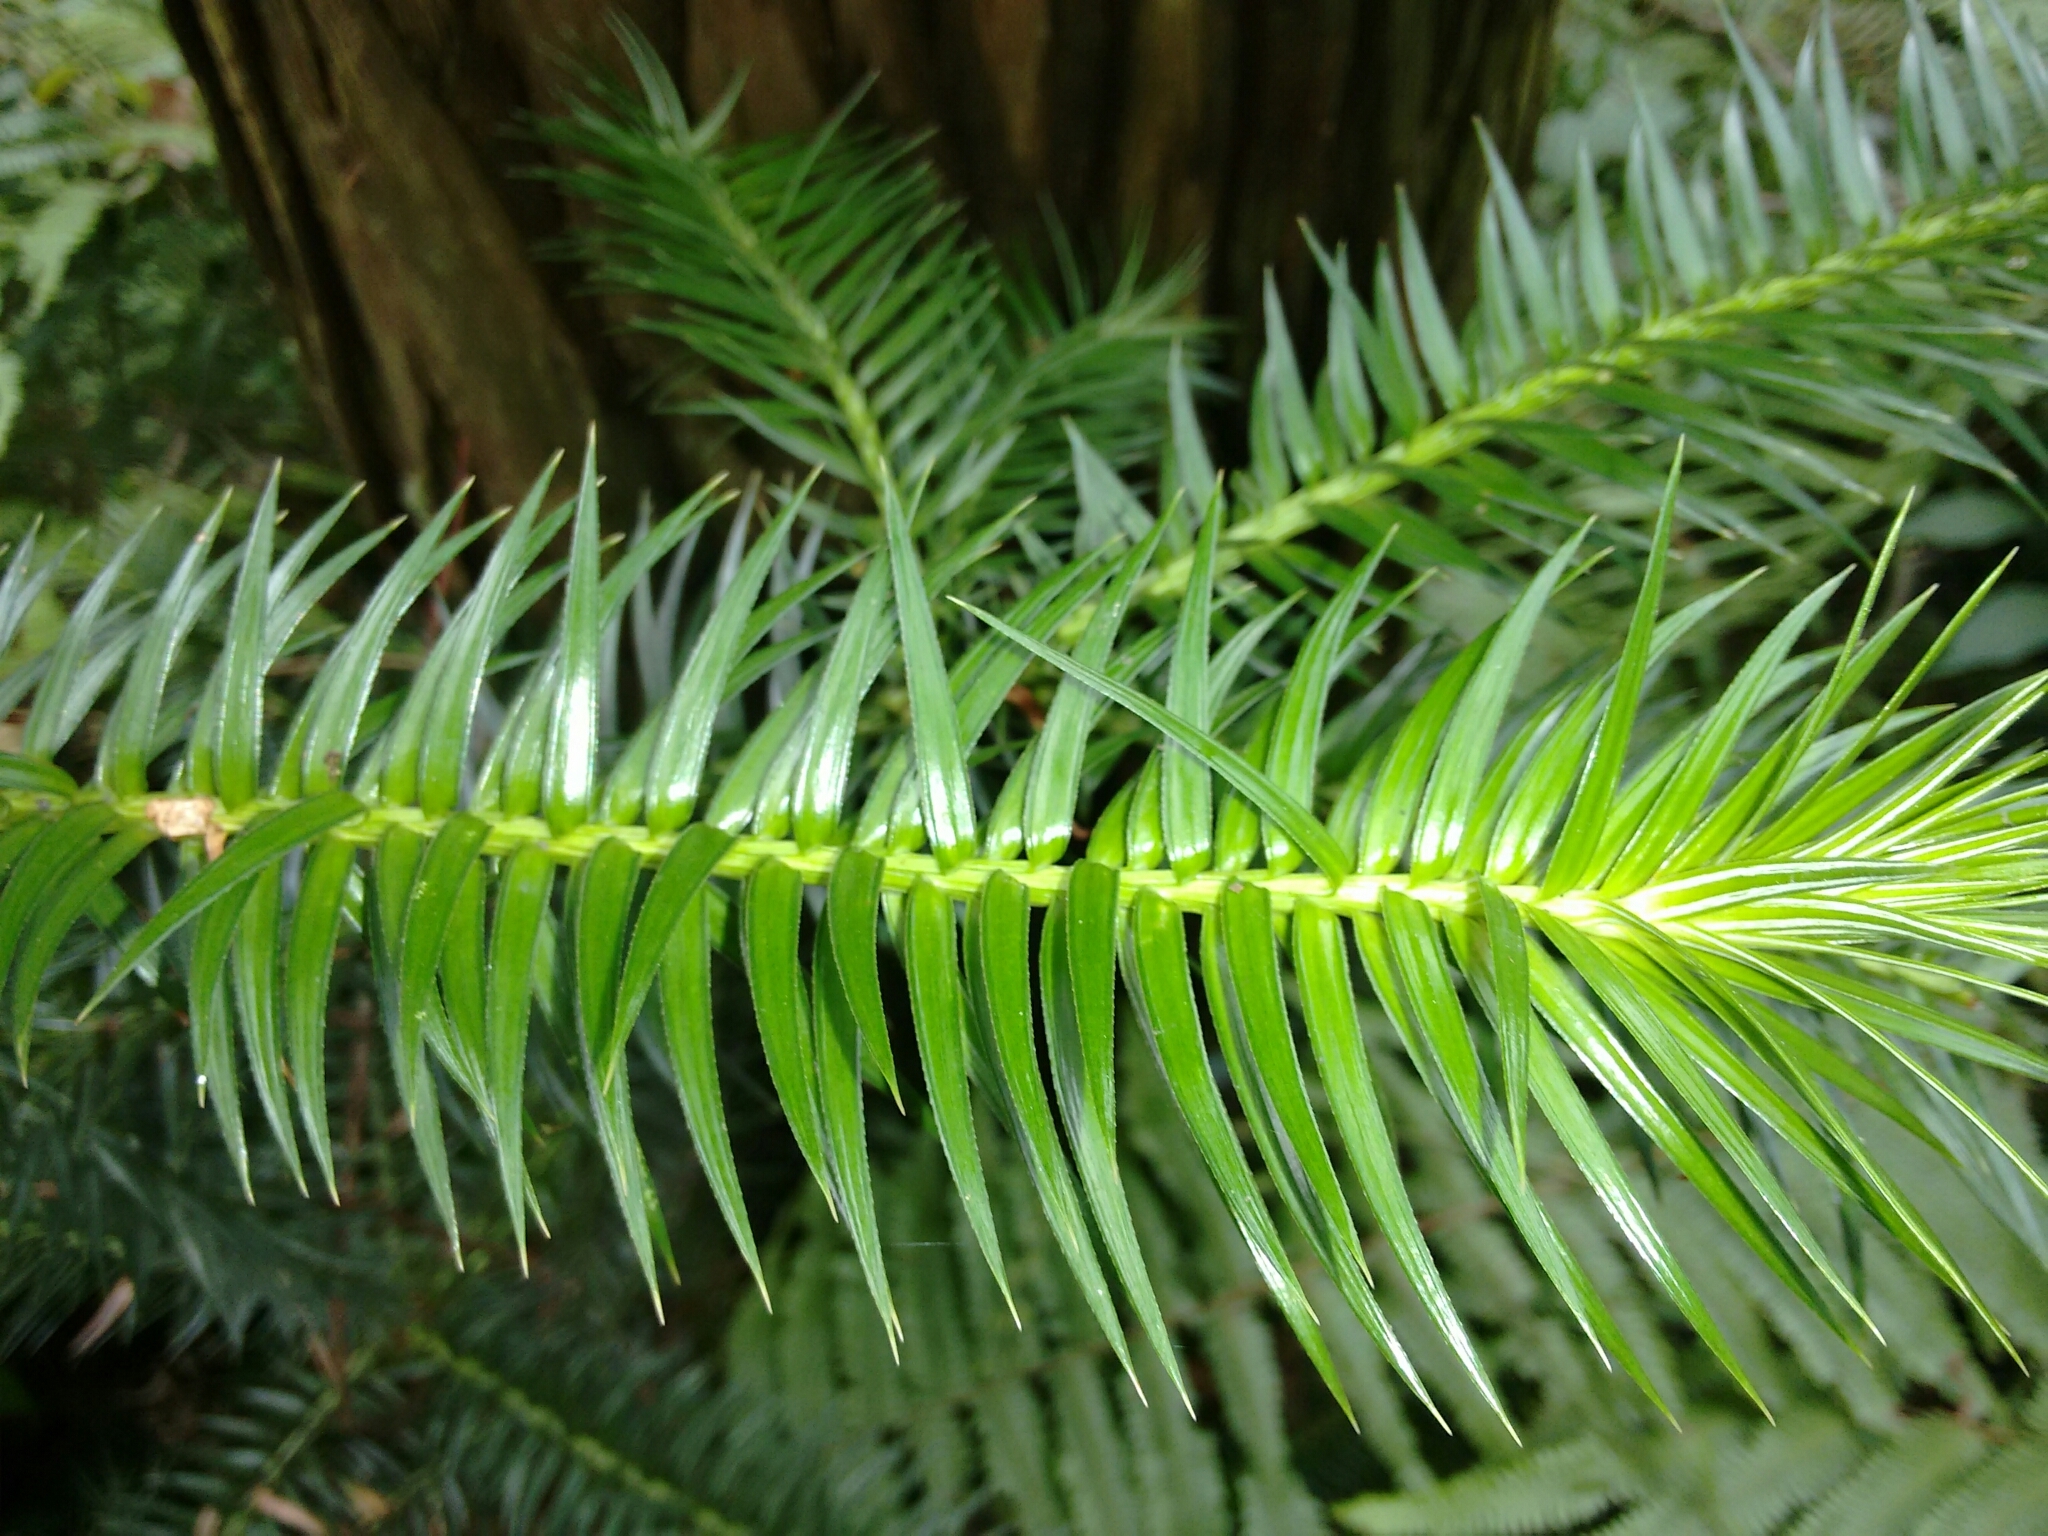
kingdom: Plantae
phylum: Tracheophyta
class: Pinopsida
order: Pinales
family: Cupressaceae
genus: Cunninghamia
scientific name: Cunninghamia lanceolata
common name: Chinese fir
